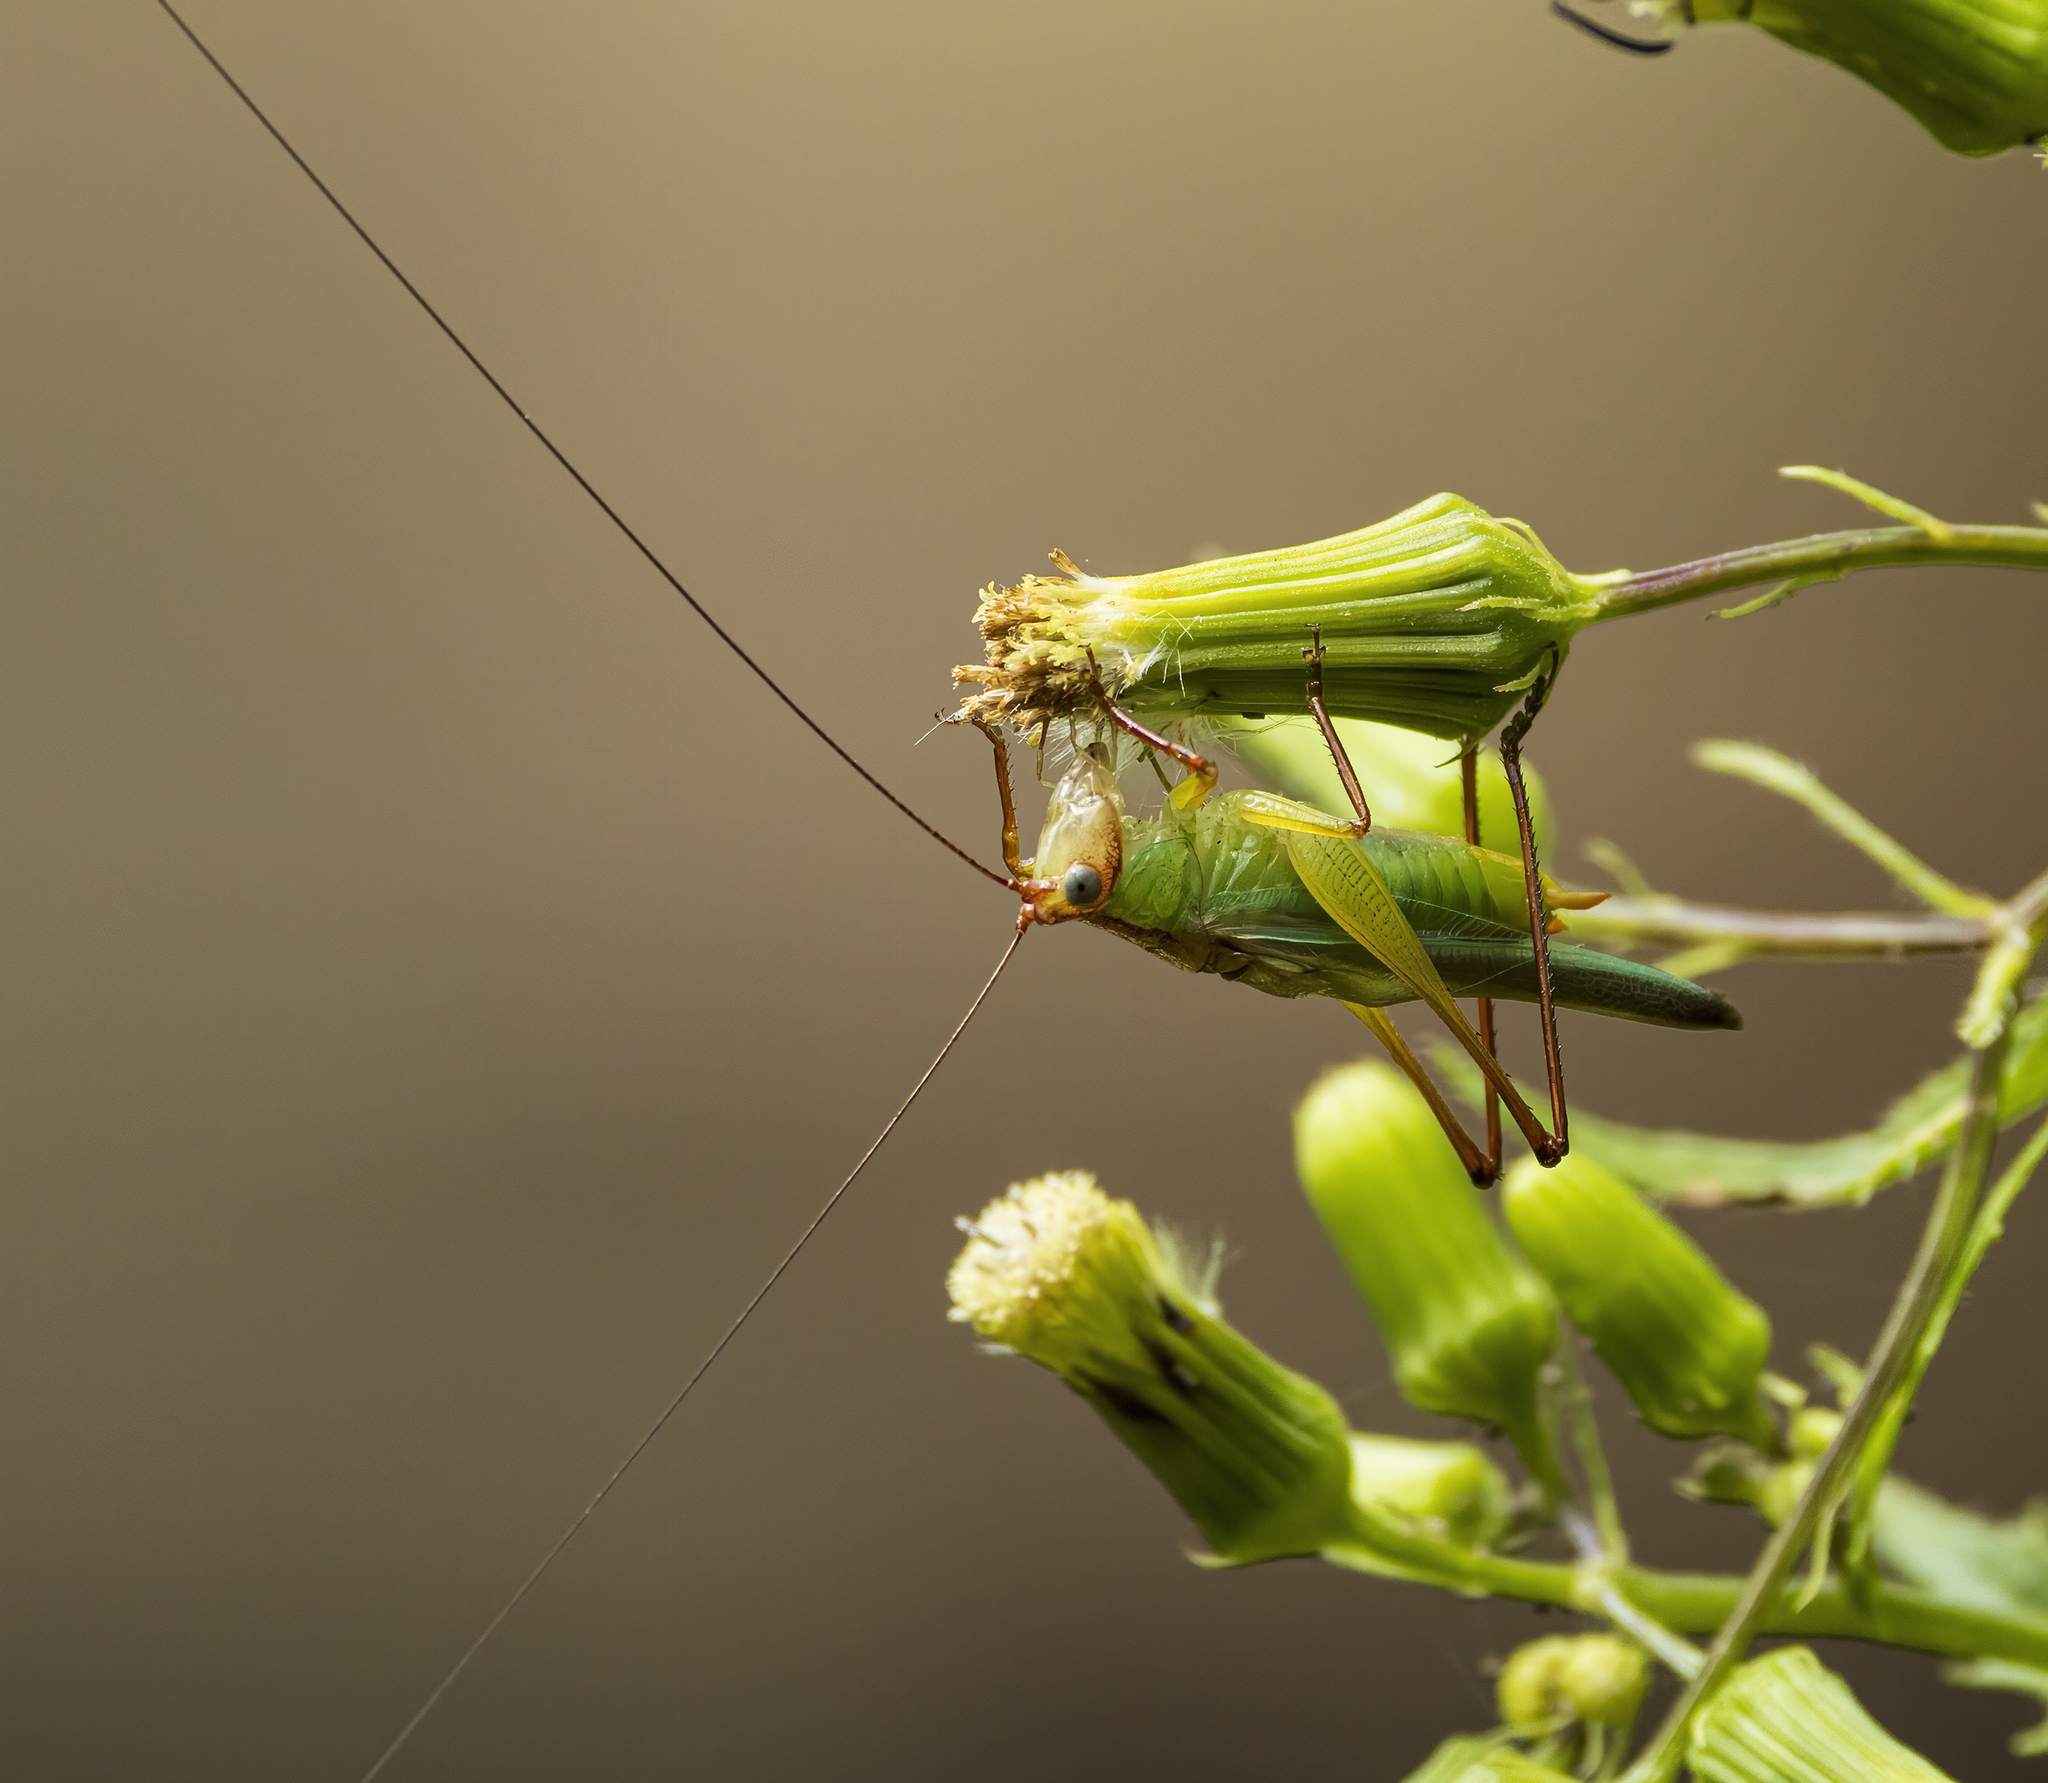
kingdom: Animalia
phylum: Arthropoda
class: Insecta
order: Orthoptera
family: Tettigoniidae
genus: Orchelimum
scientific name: Orchelimum pulchellum
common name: Handsome meadow katydid
